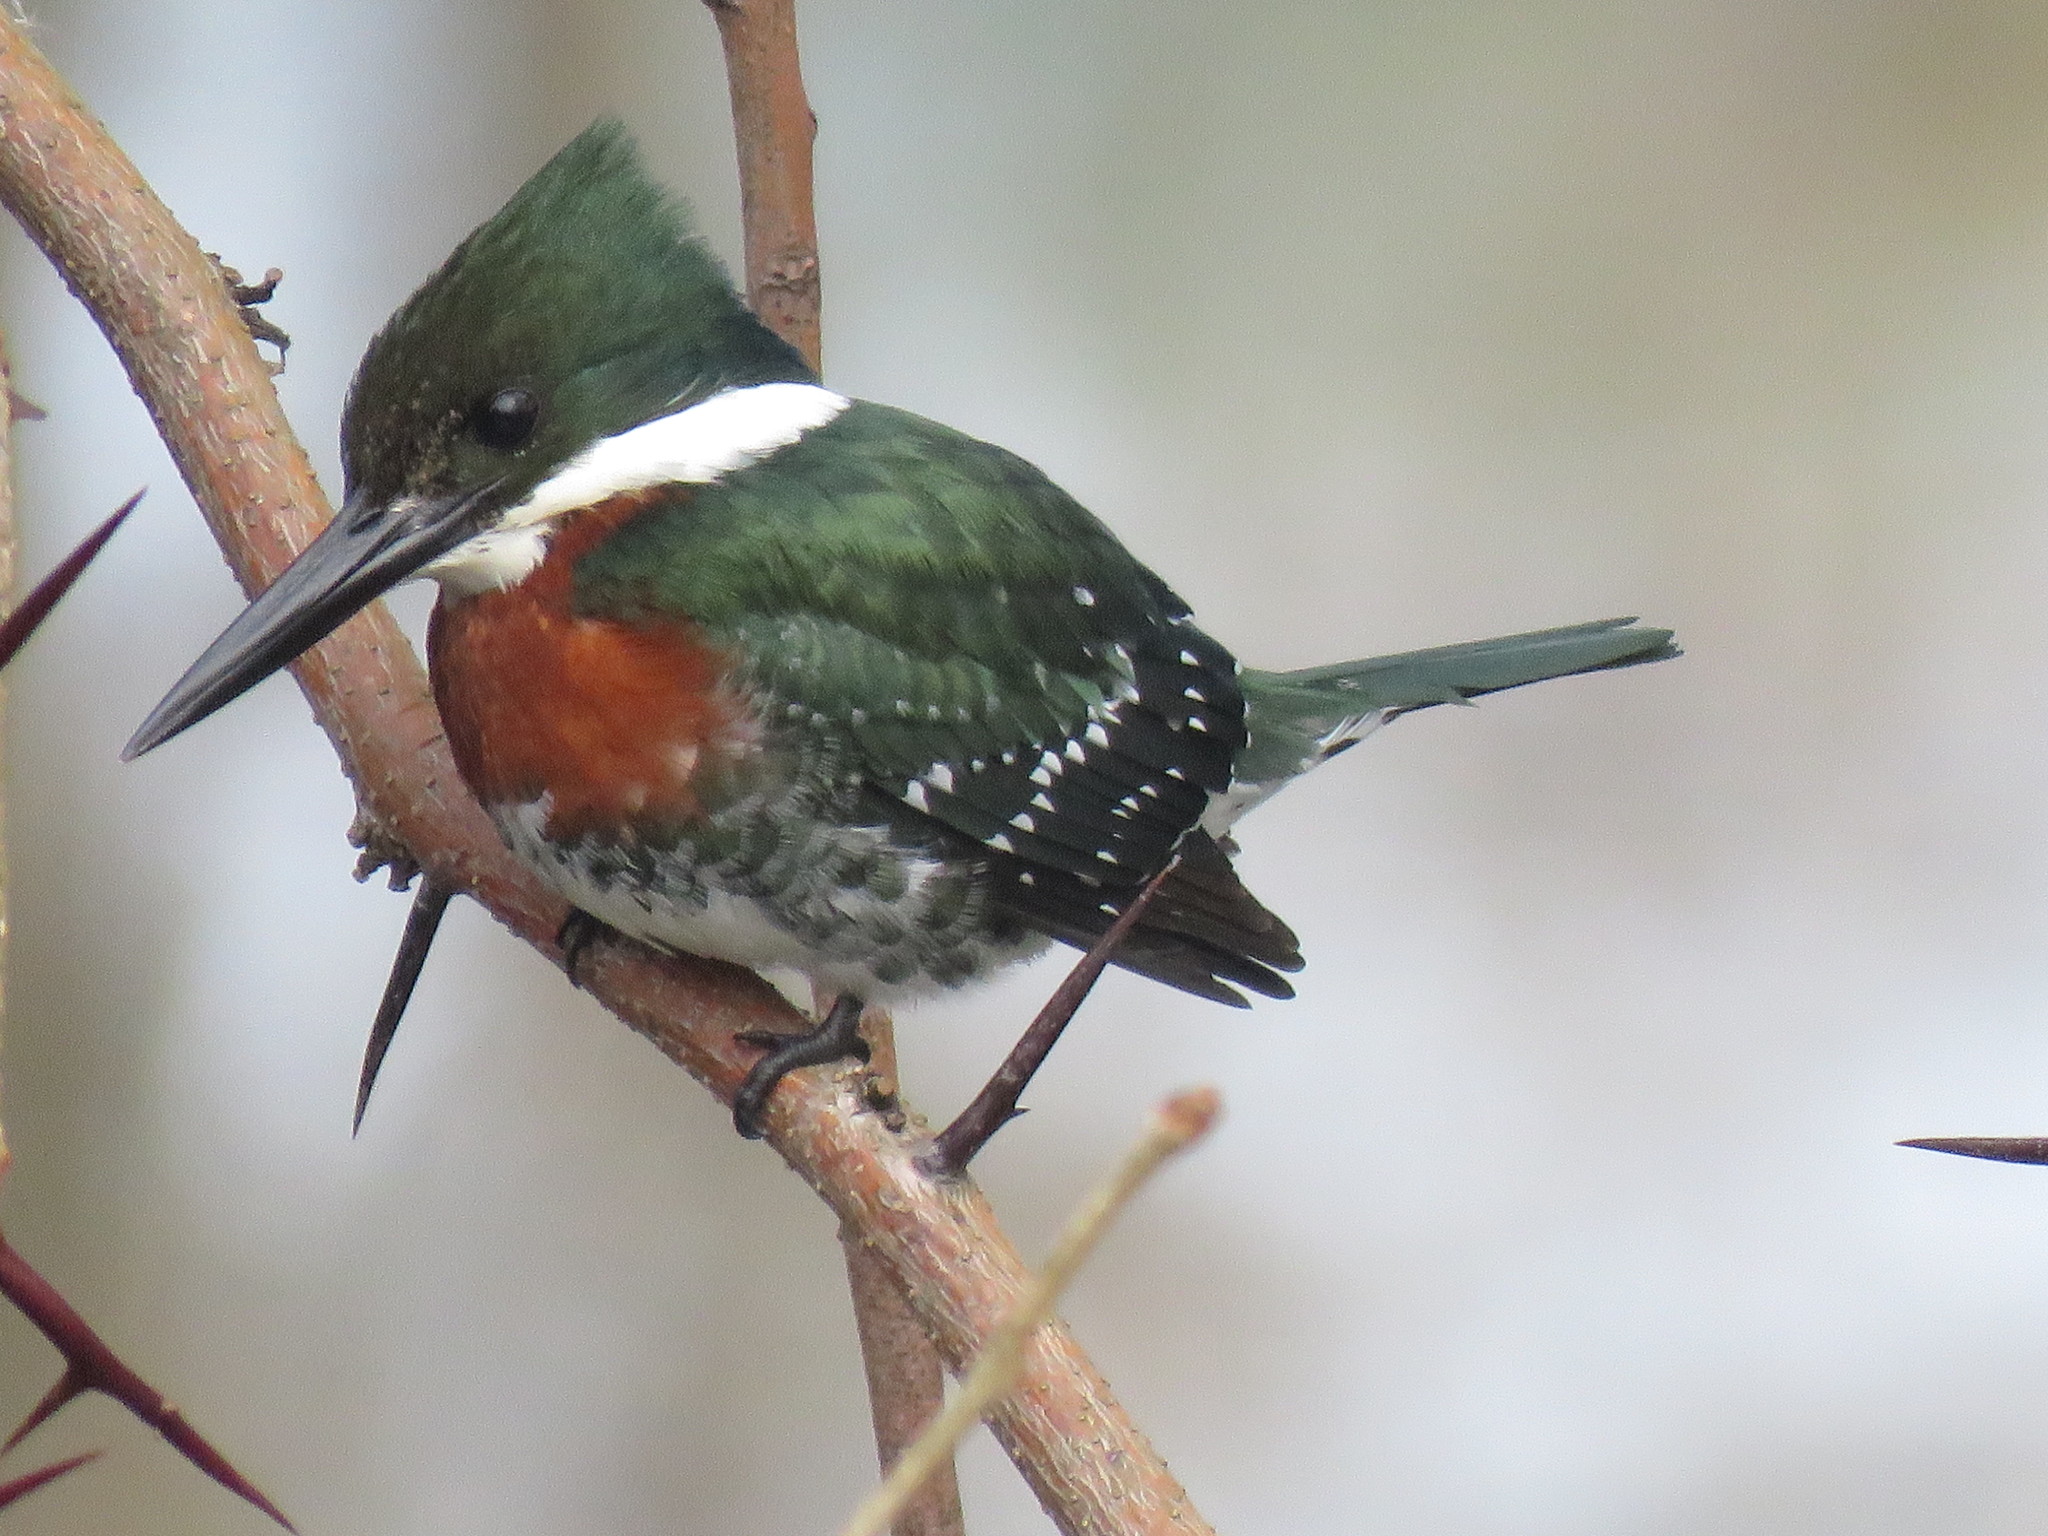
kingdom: Animalia
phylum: Chordata
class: Aves
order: Coraciiformes
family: Alcedinidae
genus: Chloroceryle
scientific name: Chloroceryle americana
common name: Green kingfisher
